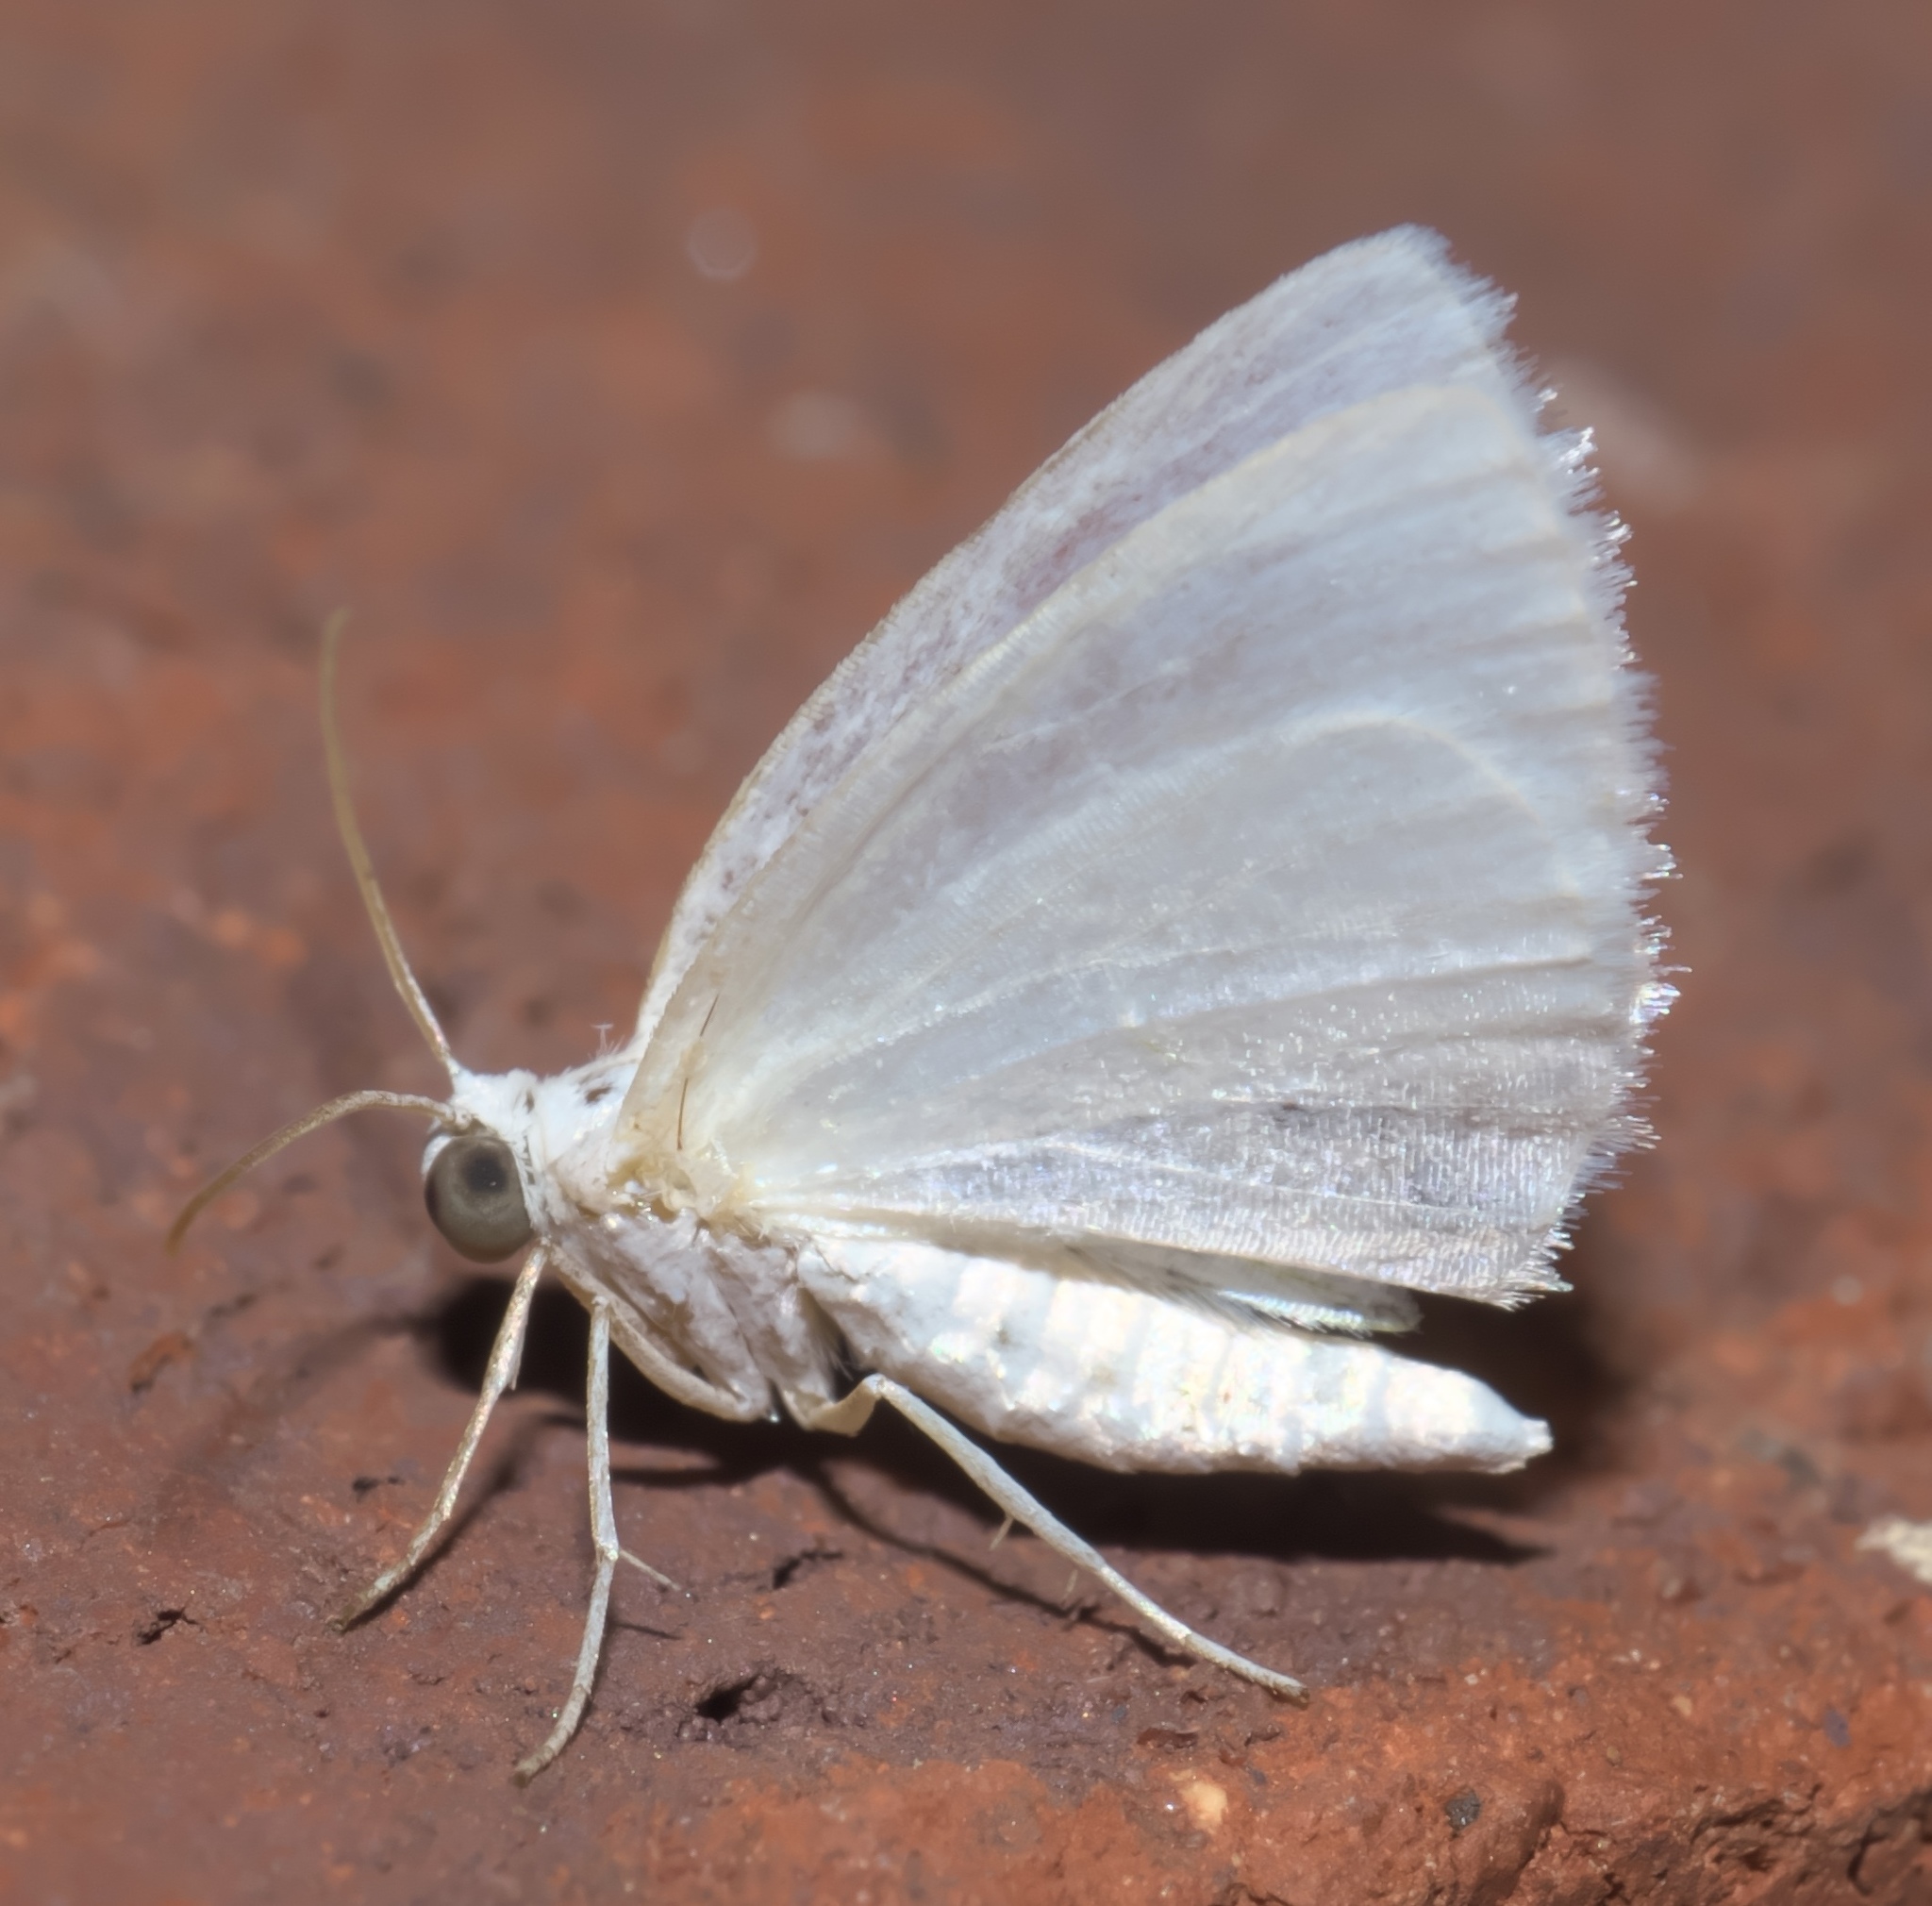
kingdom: Animalia
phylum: Arthropoda
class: Insecta
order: Lepidoptera
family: Geometridae
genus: Lomographa
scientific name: Lomographa vestaliata
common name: White spring moth
